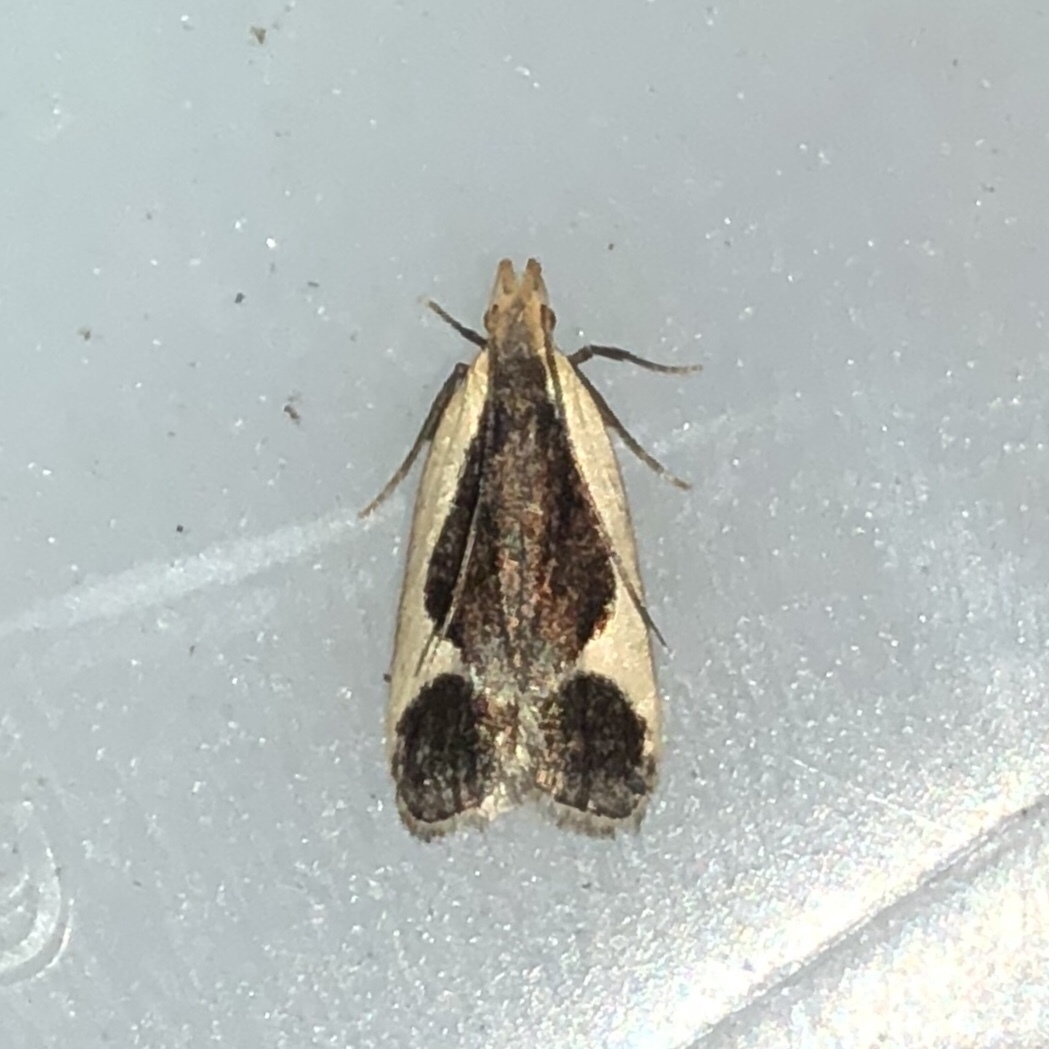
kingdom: Animalia
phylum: Arthropoda
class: Insecta
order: Lepidoptera
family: Gelechiidae
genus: Dichomeris
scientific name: Dichomeris flavocostella
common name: Cream-edged dichomeris moth
